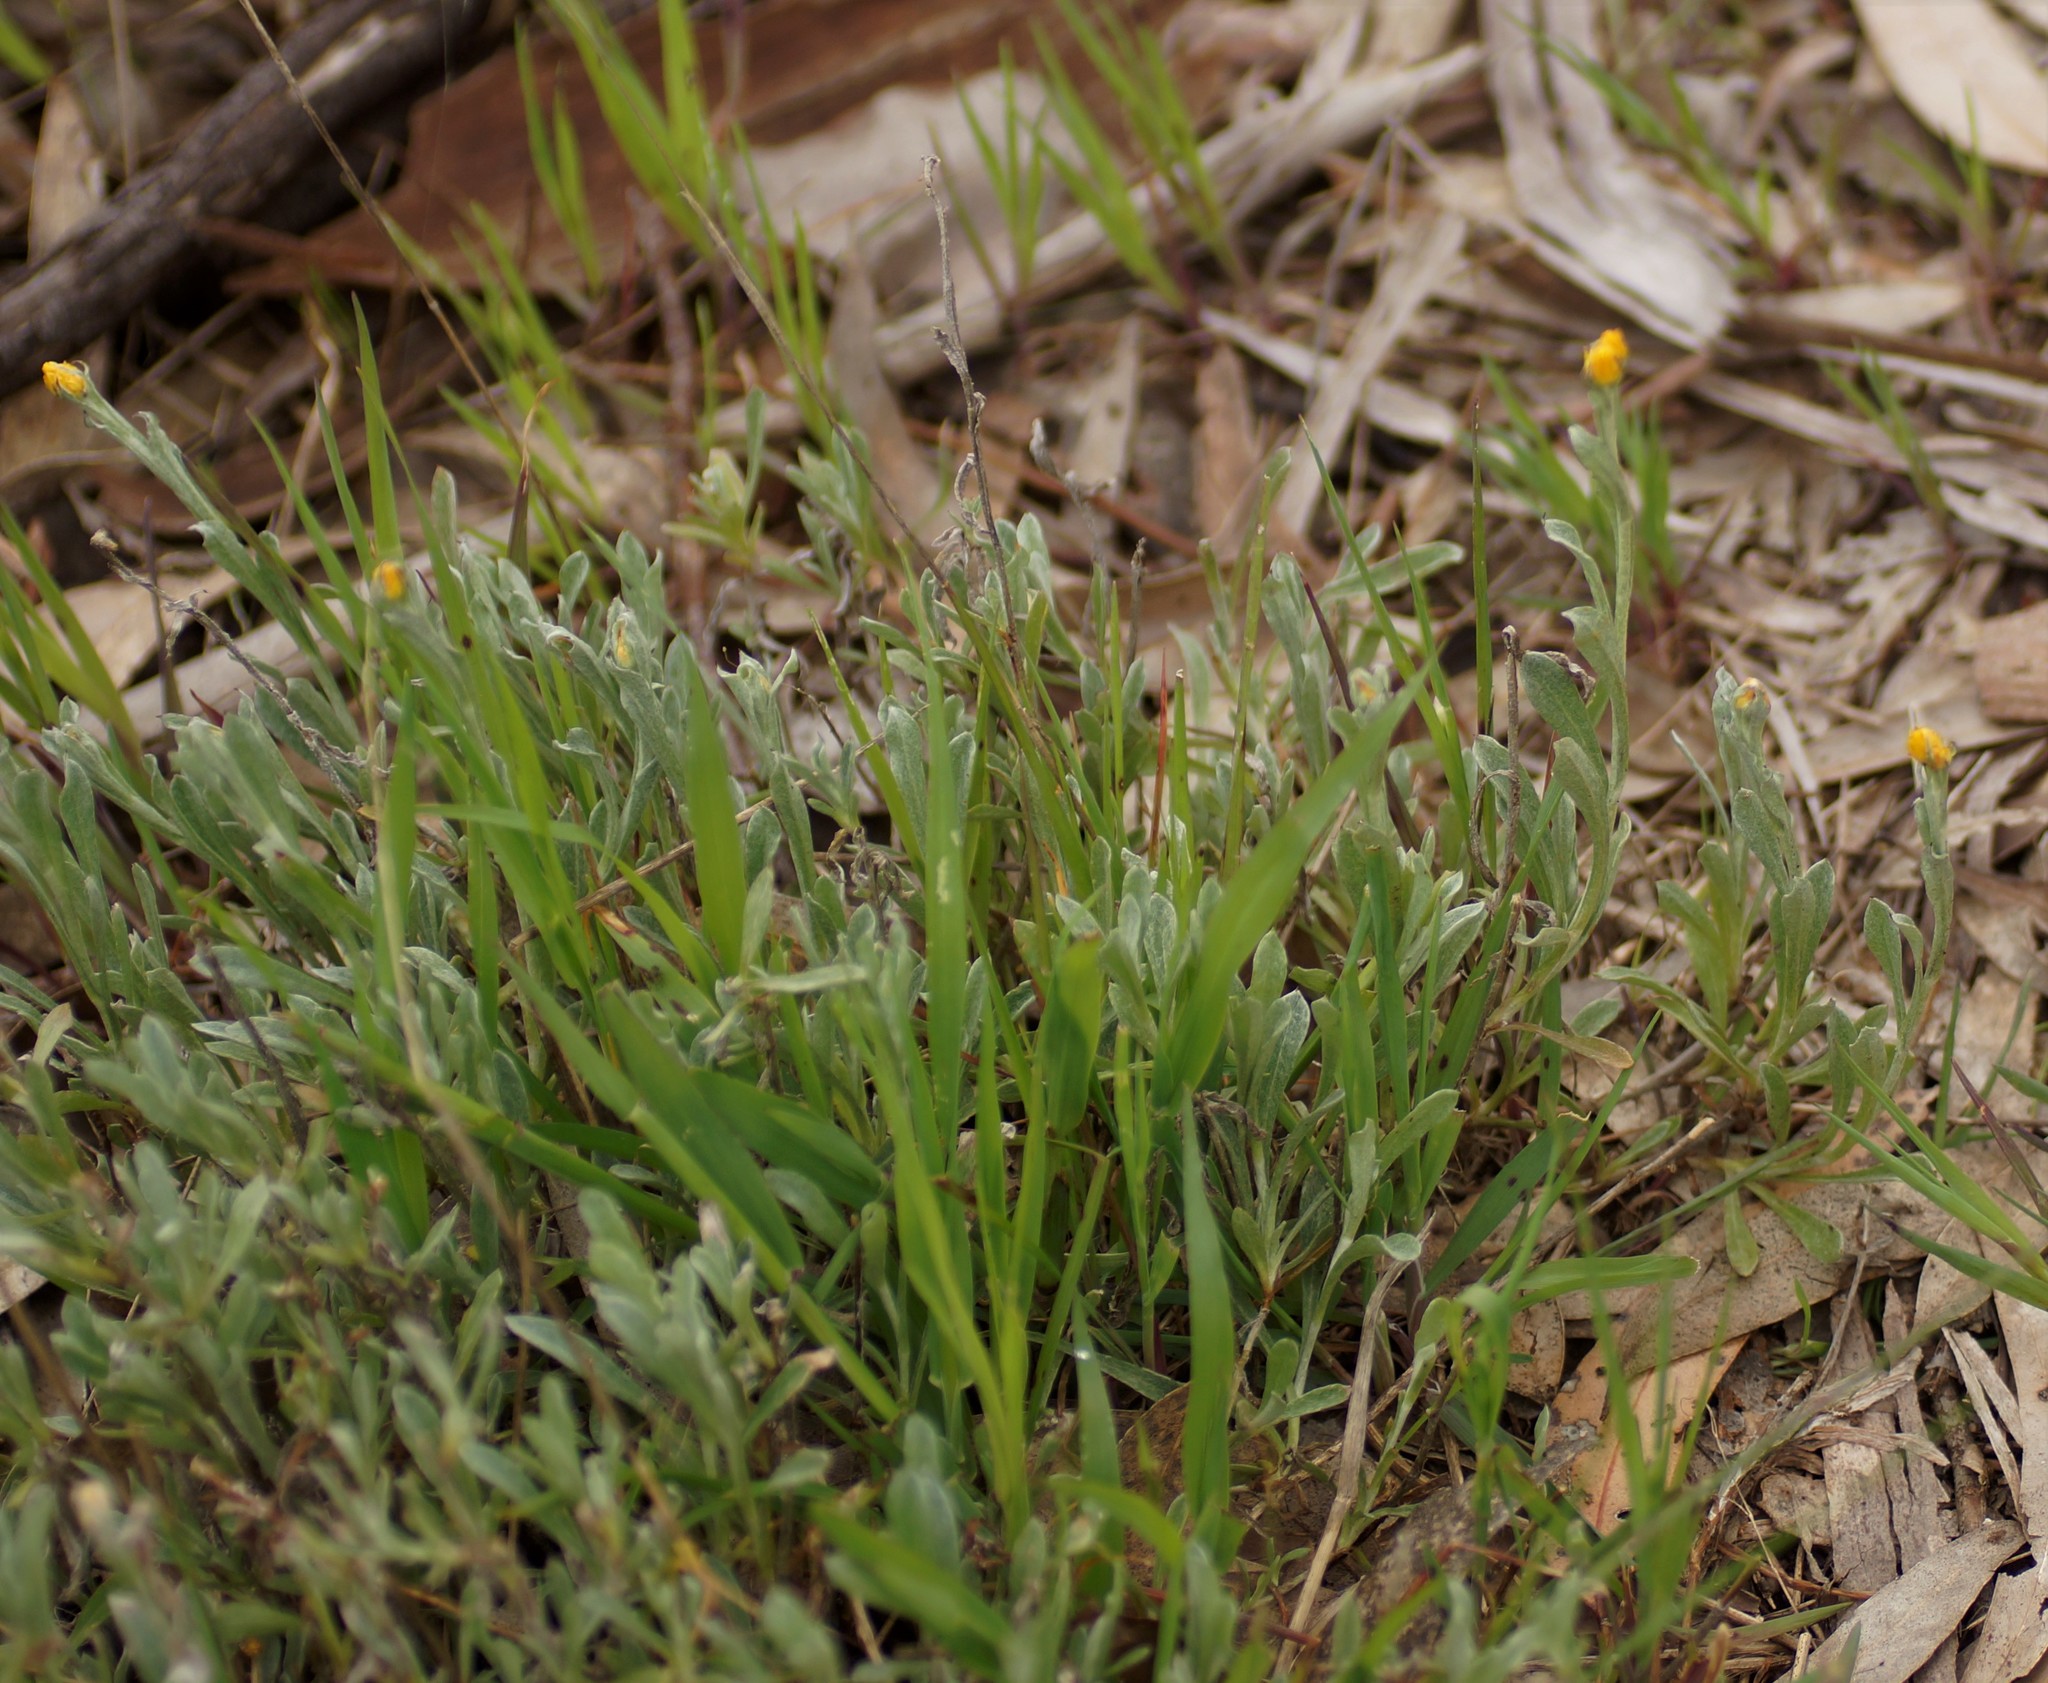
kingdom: Plantae
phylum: Tracheophyta
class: Magnoliopsida
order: Asterales
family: Asteraceae
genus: Chrysocephalum
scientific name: Chrysocephalum apiculatum
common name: Common everlasting
